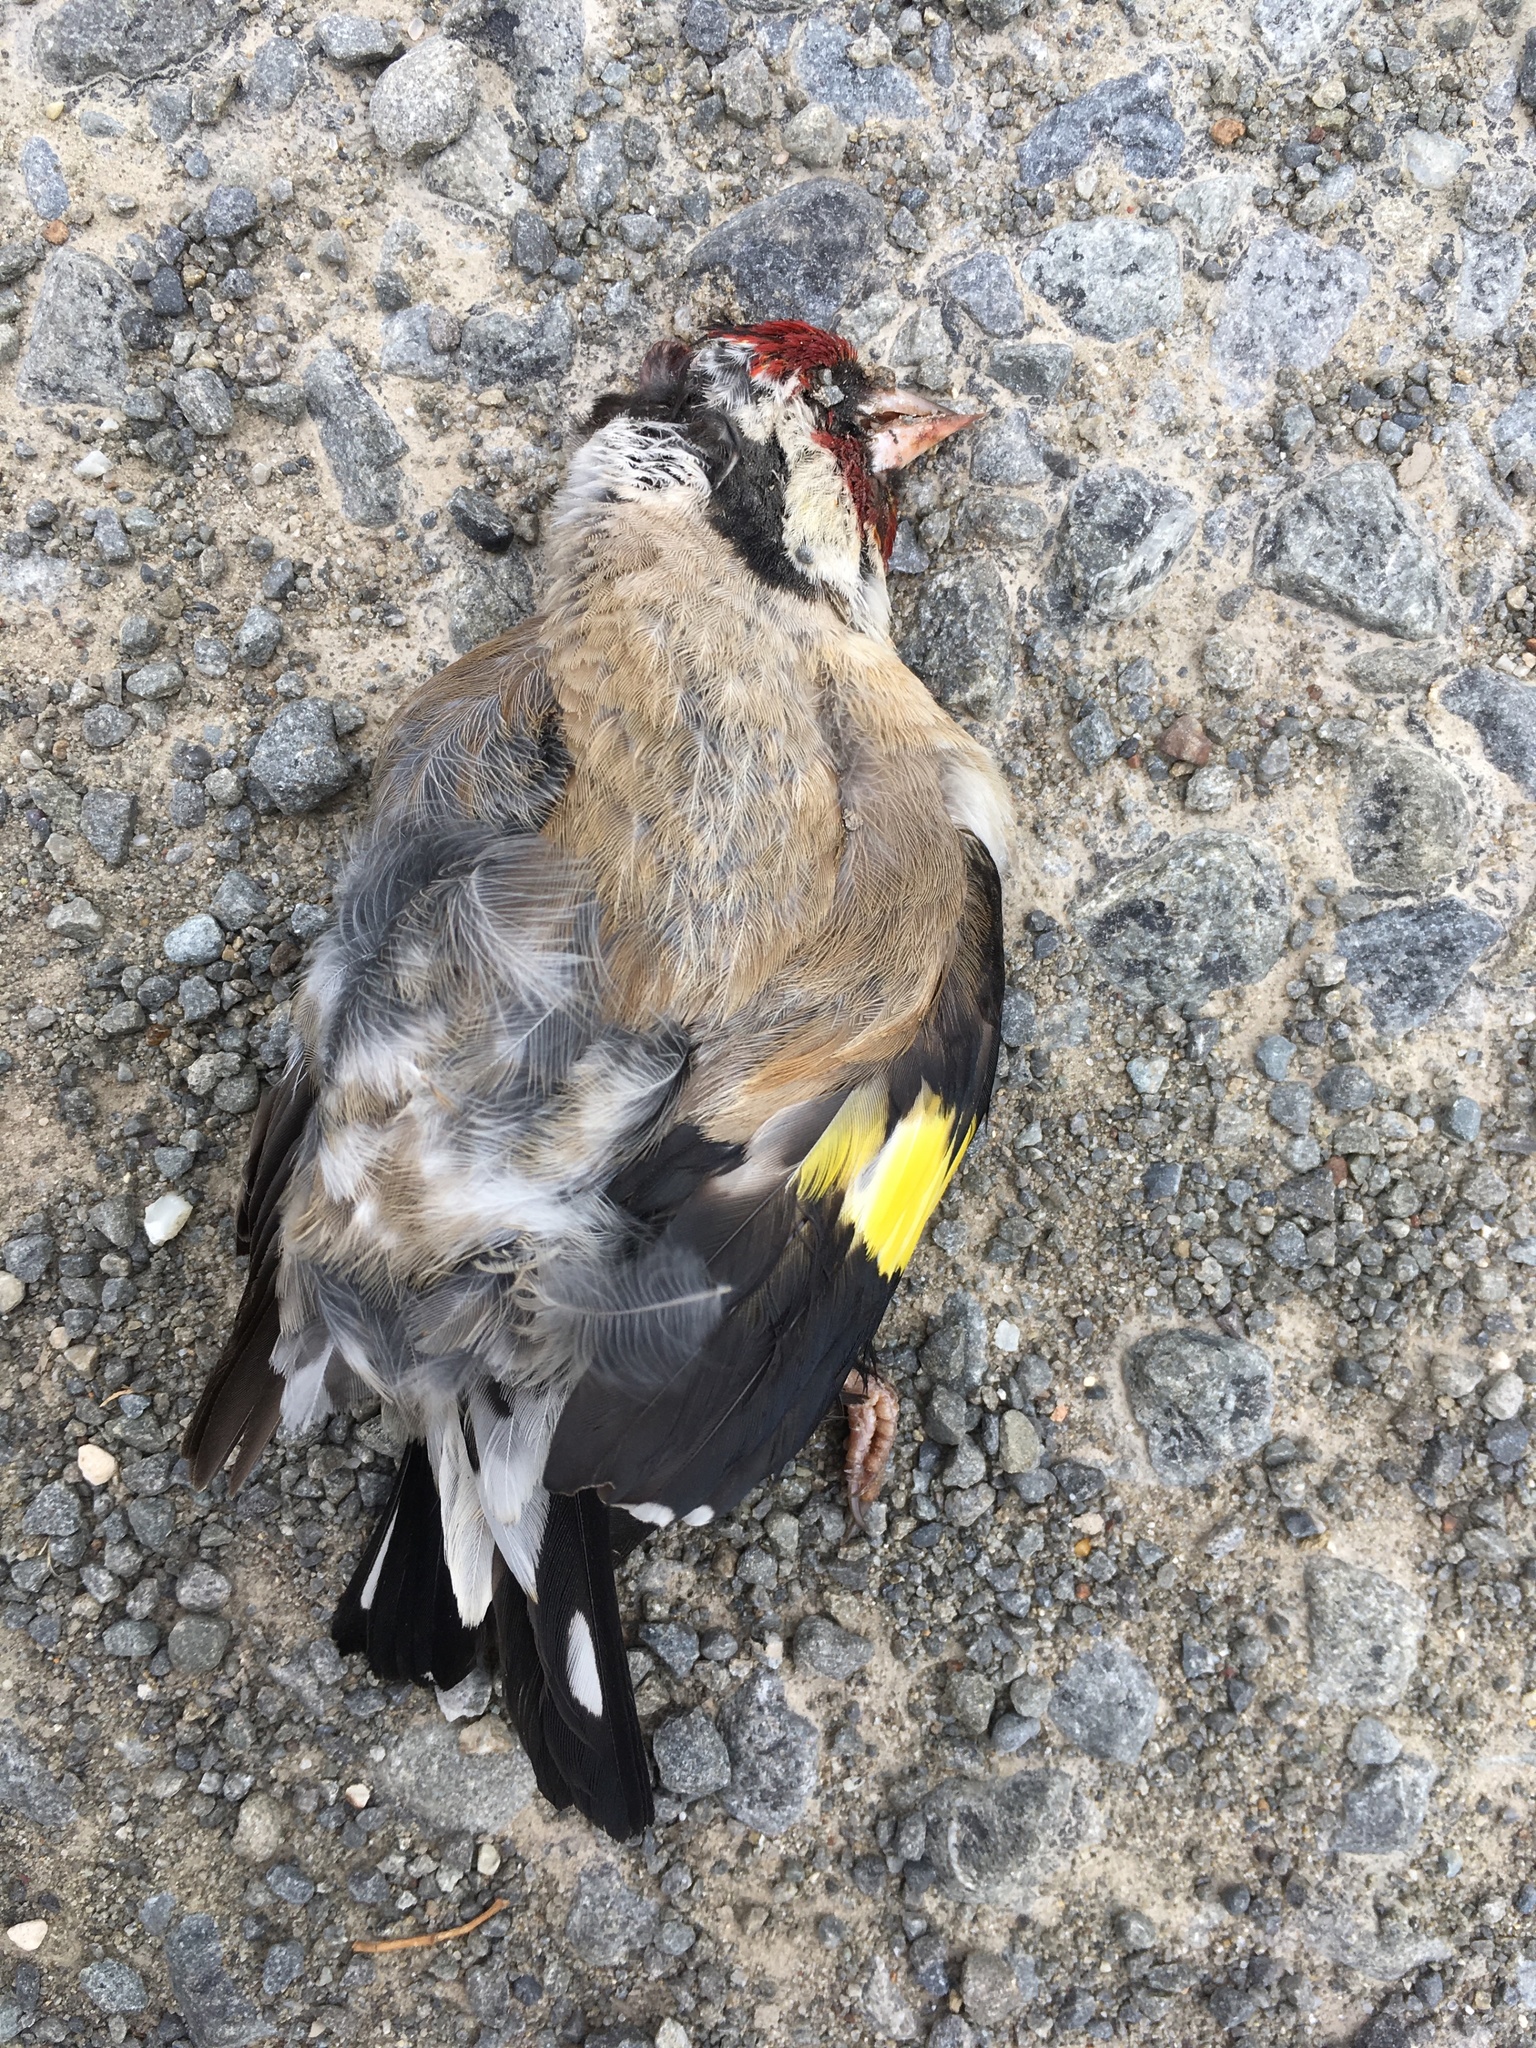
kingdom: Animalia
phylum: Chordata
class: Aves
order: Passeriformes
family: Fringillidae
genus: Carduelis
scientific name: Carduelis carduelis
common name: European goldfinch
